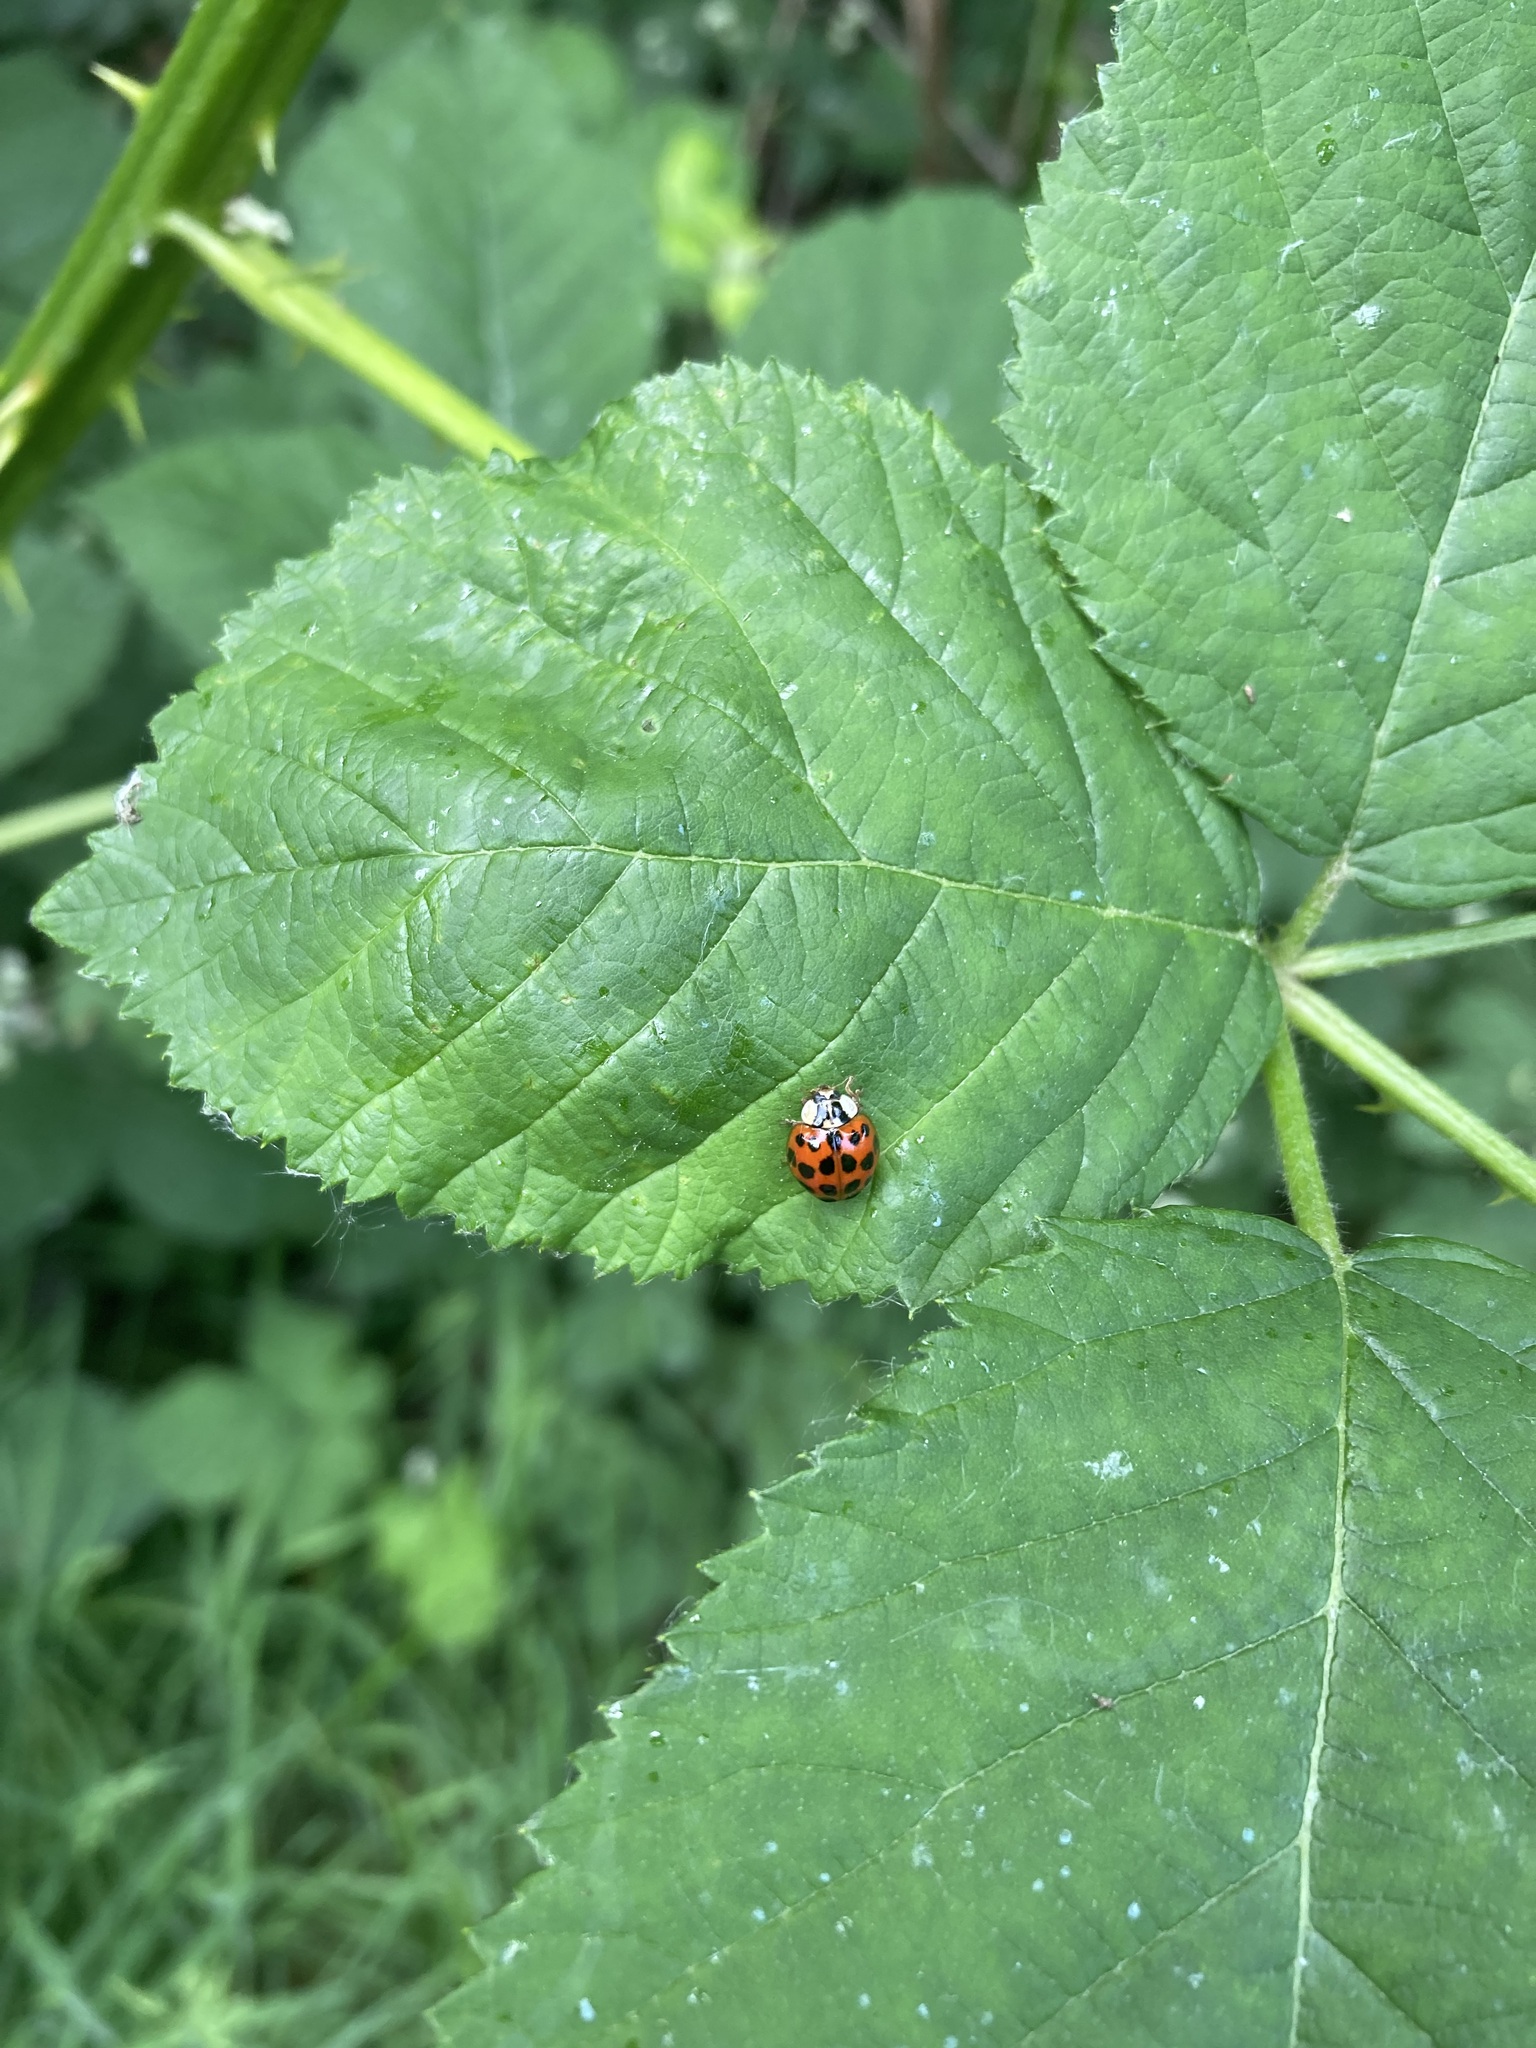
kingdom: Animalia
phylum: Arthropoda
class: Insecta
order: Coleoptera
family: Coccinellidae
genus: Harmonia
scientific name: Harmonia axyridis
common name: Harlequin ladybird
